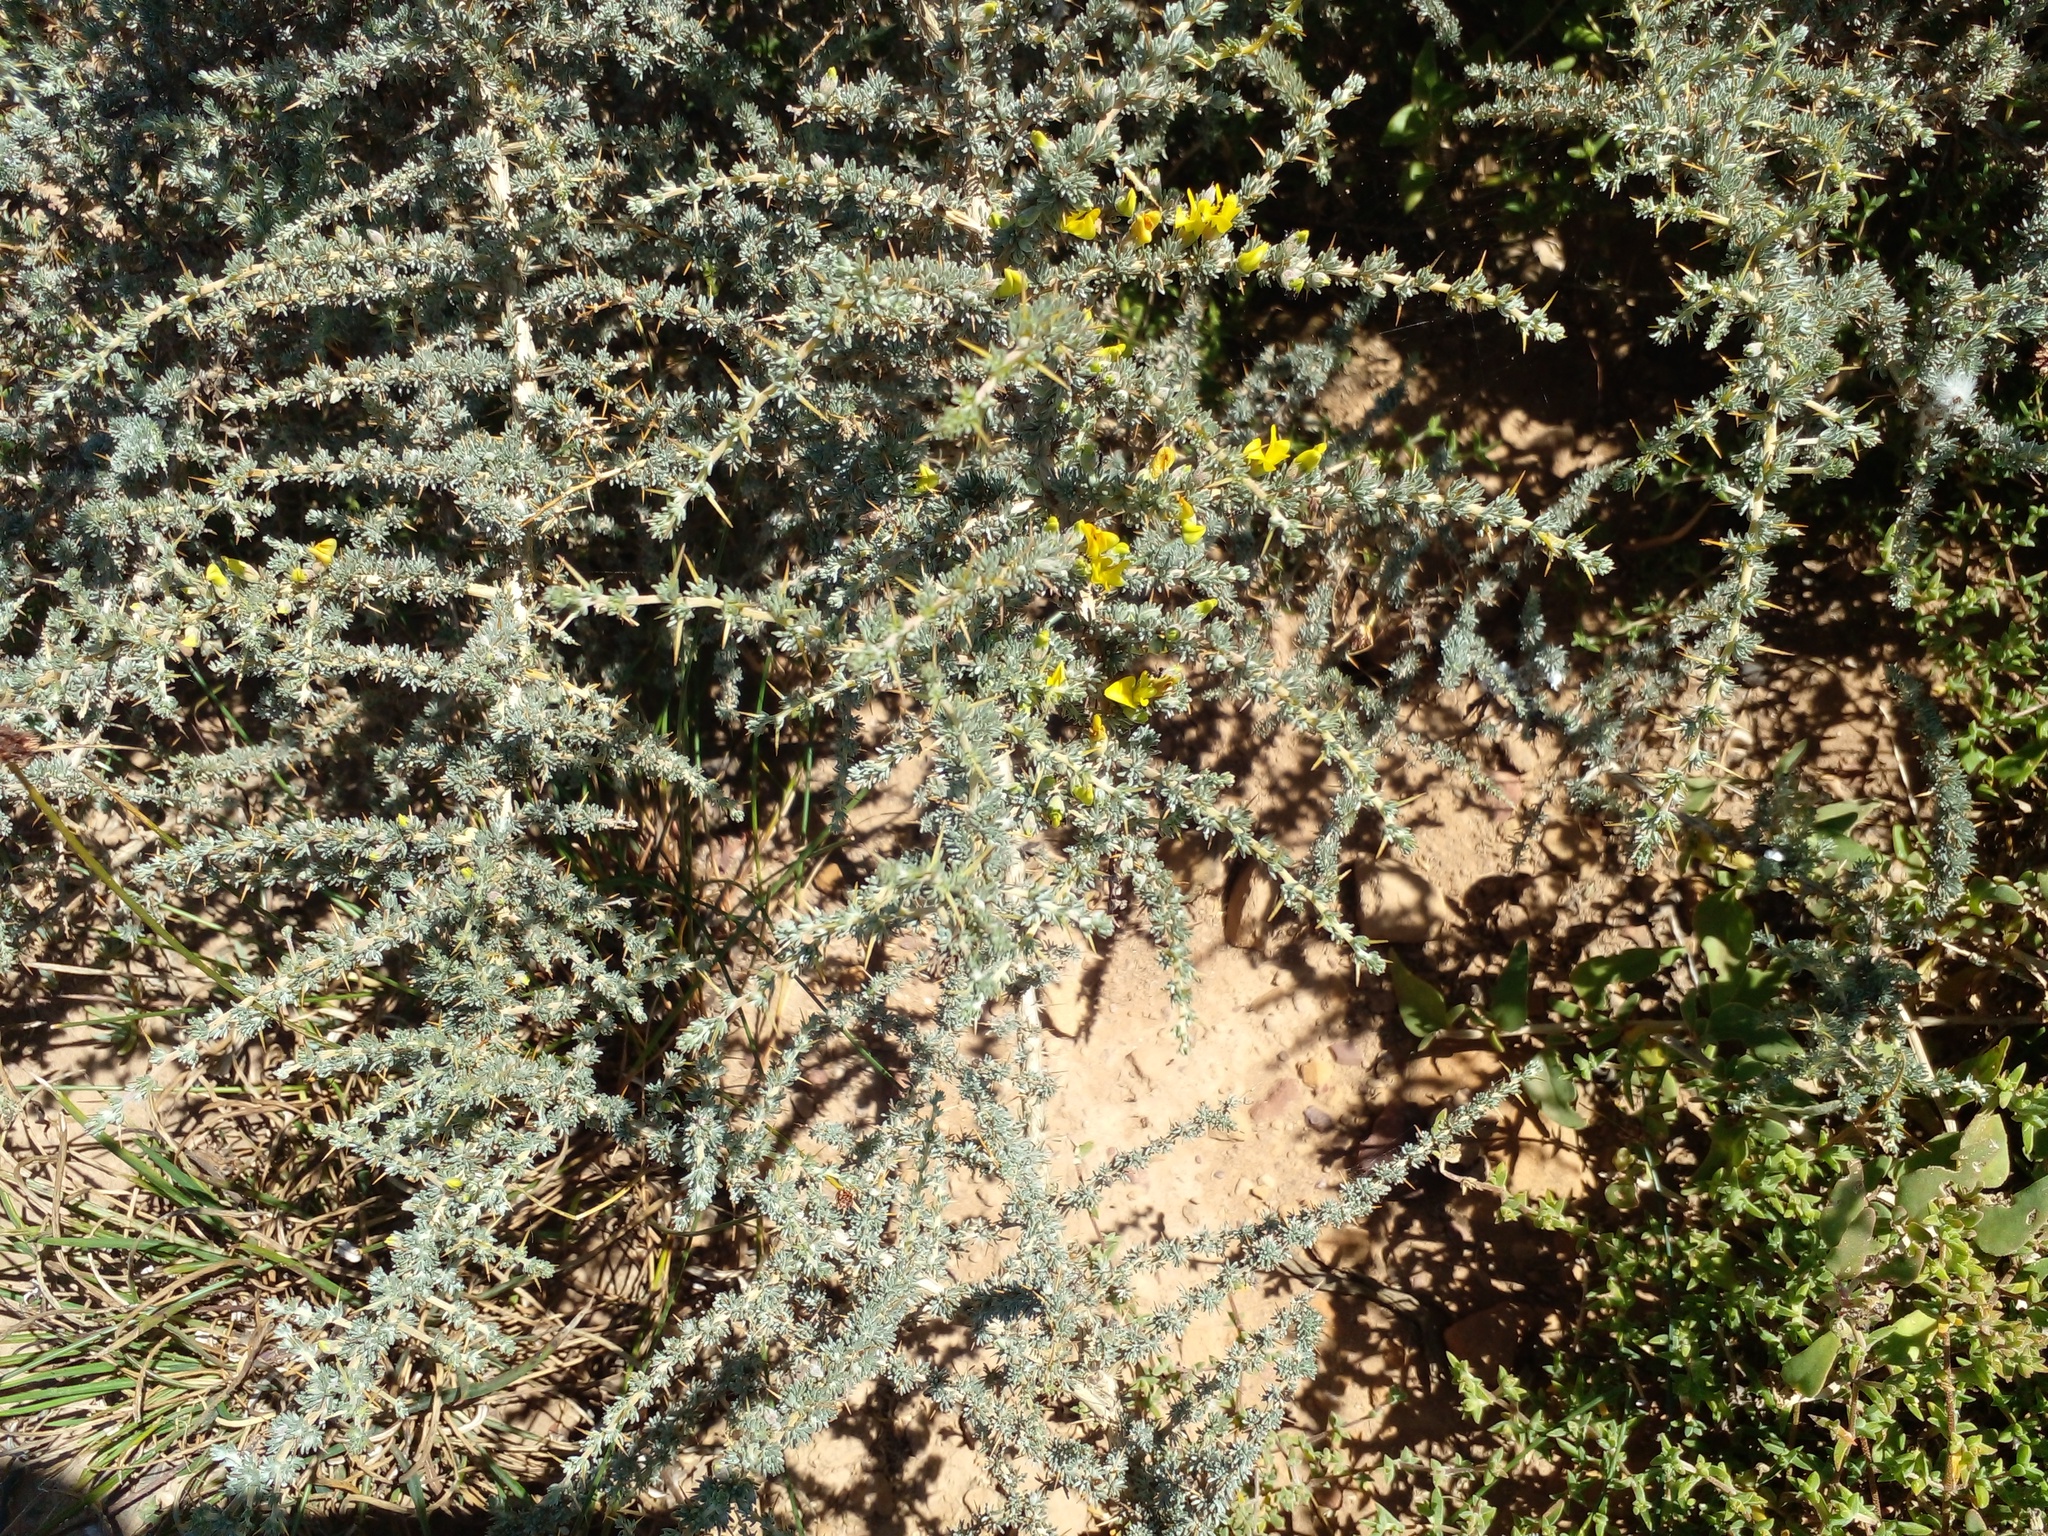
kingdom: Plantae
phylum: Tracheophyta
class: Magnoliopsida
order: Fabales
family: Fabaceae
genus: Aspalathus
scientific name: Aspalathus acanthophylla
